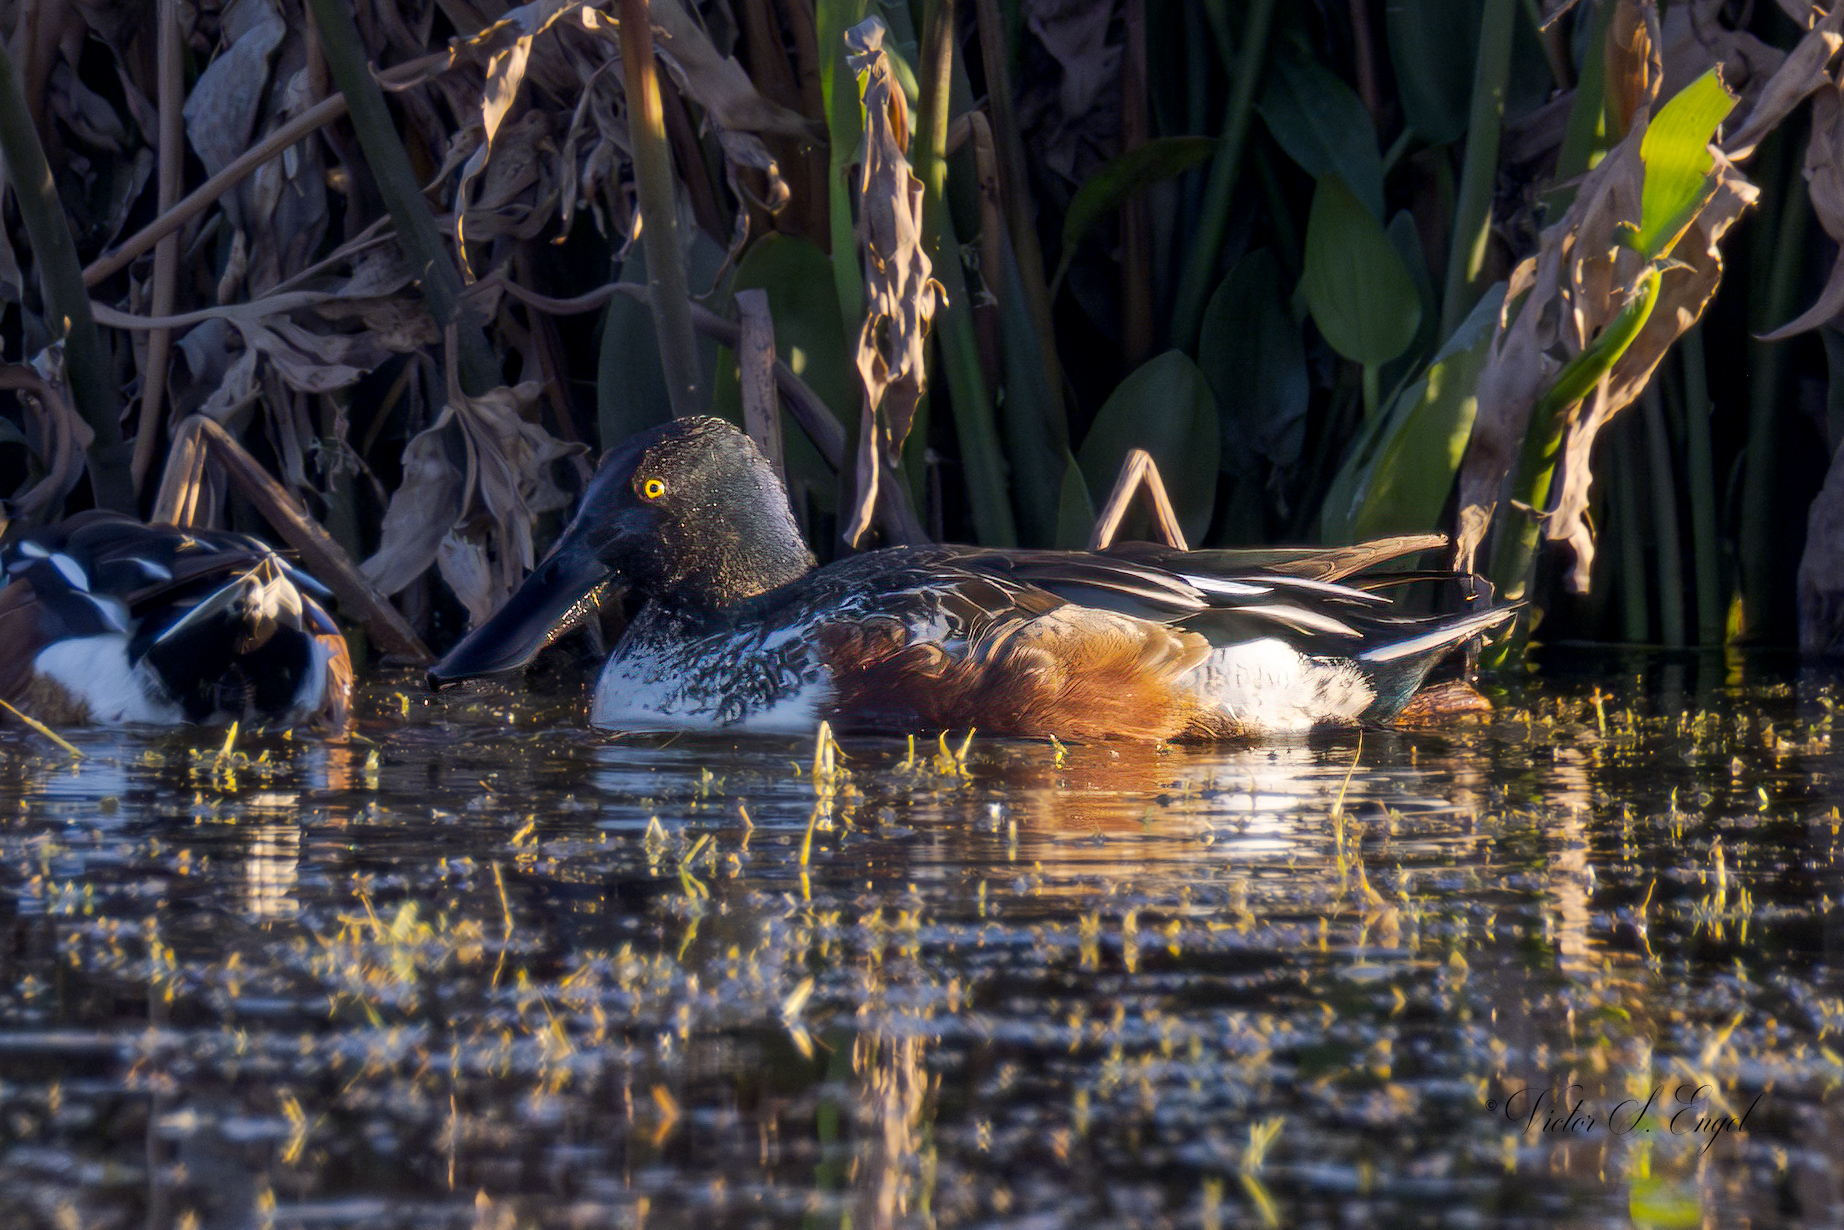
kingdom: Animalia
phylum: Chordata
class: Aves
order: Anseriformes
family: Anatidae
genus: Spatula
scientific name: Spatula clypeata
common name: Northern shoveler
